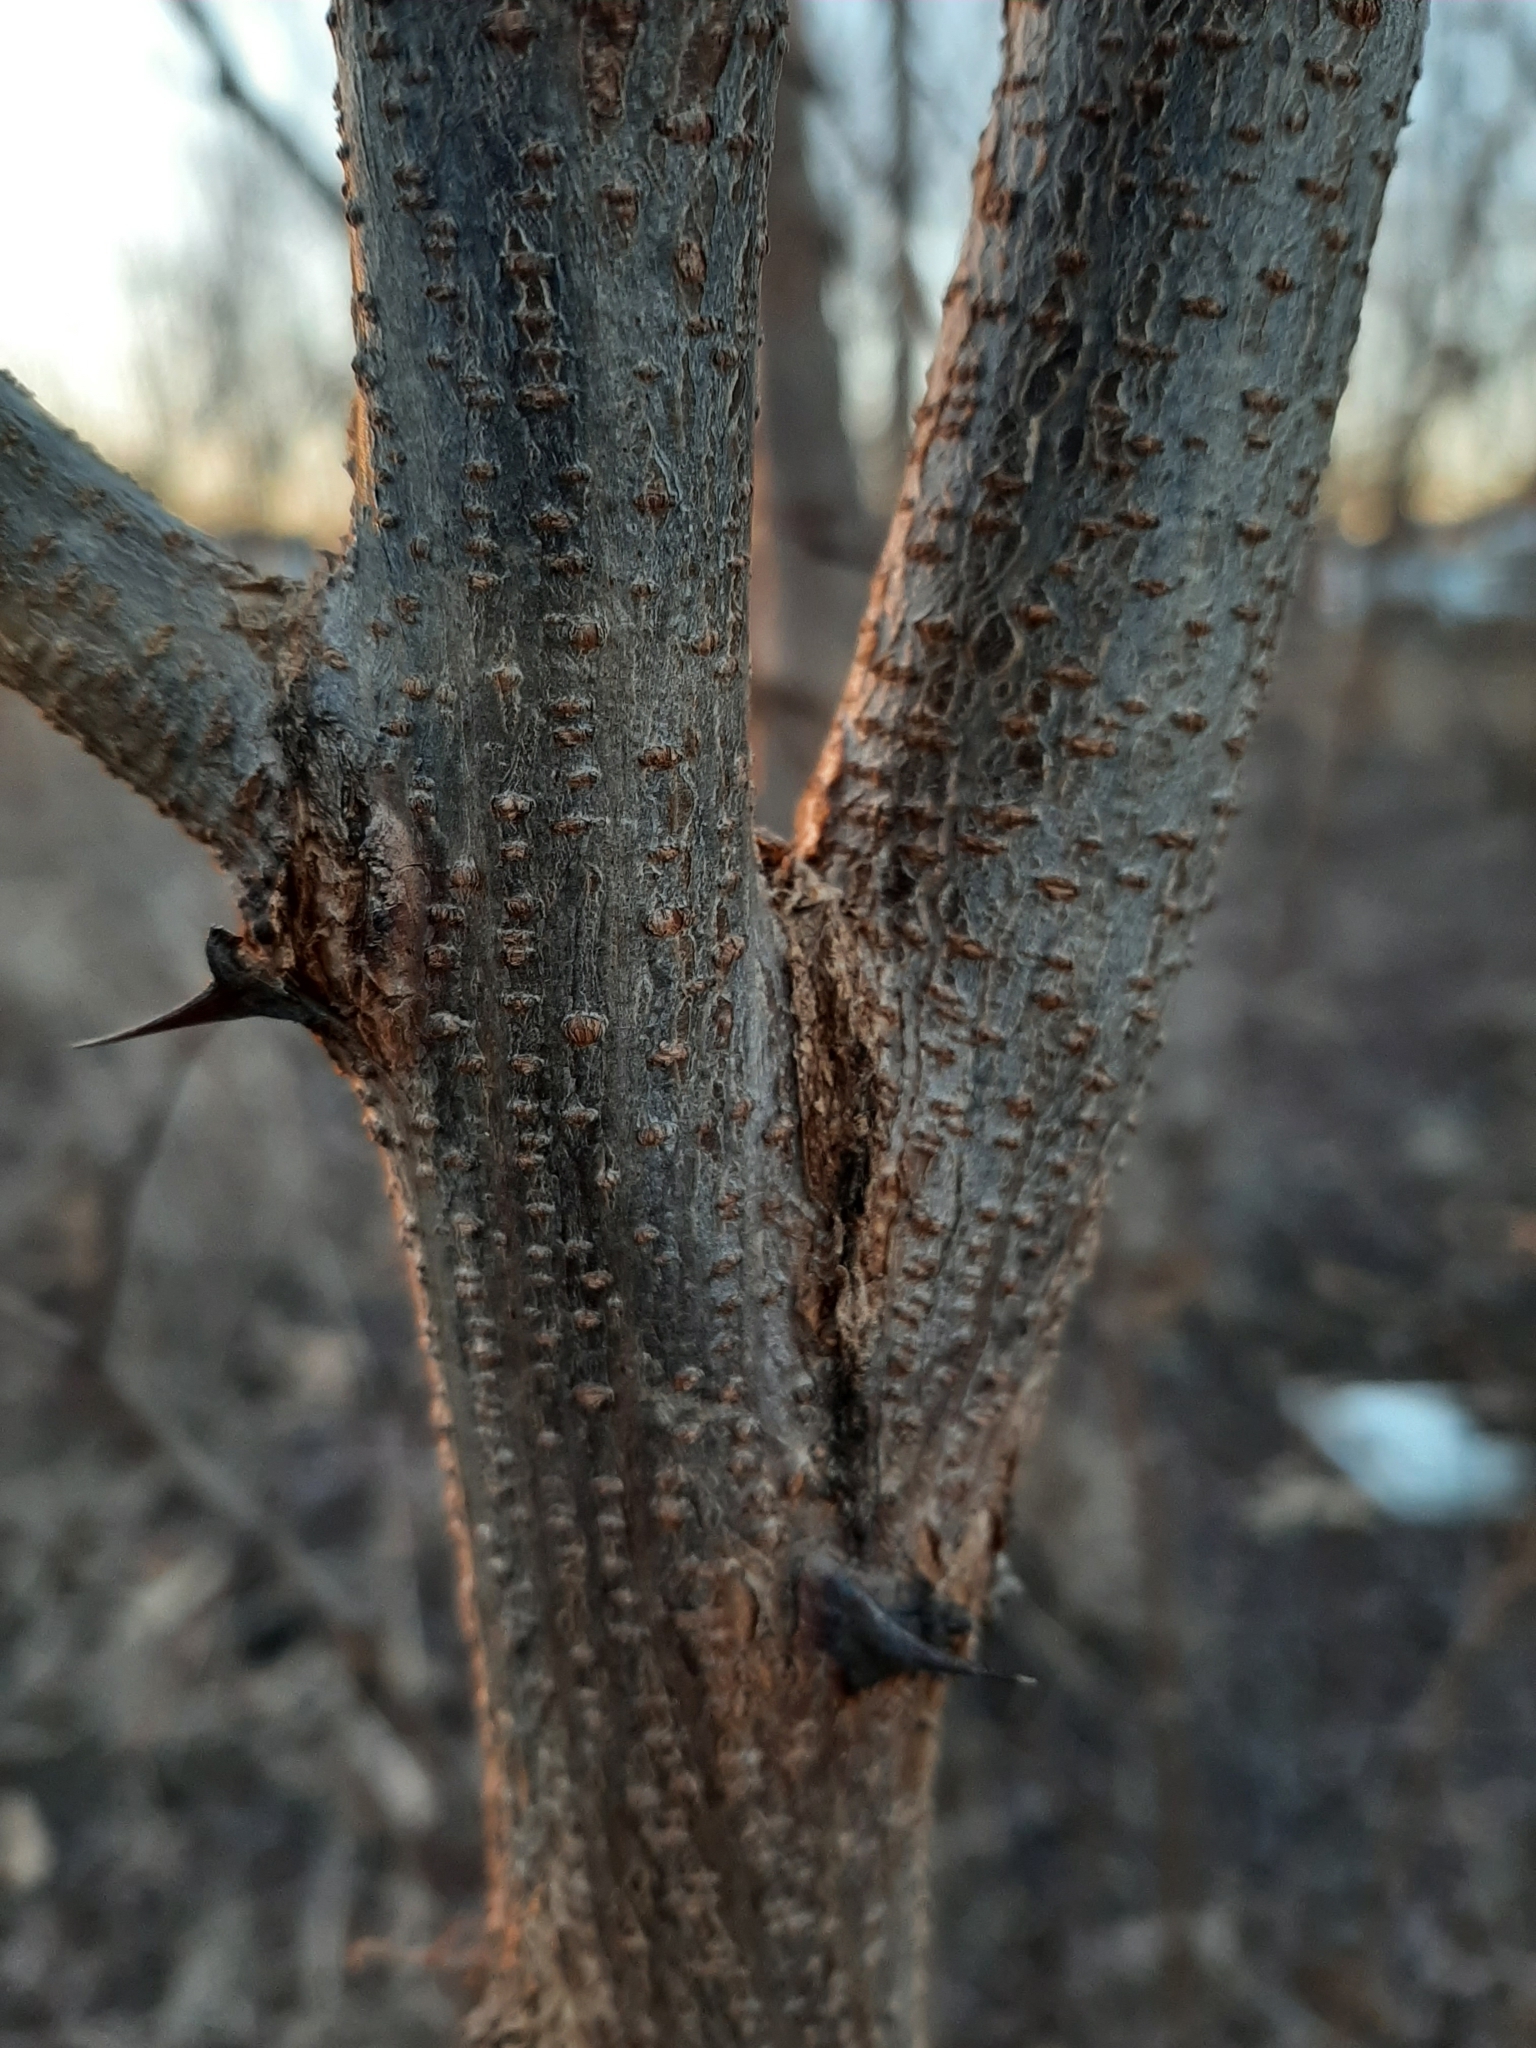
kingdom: Plantae
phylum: Tracheophyta
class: Magnoliopsida
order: Fabales
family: Fabaceae
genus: Robinia
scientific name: Robinia pseudoacacia
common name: Black locust
